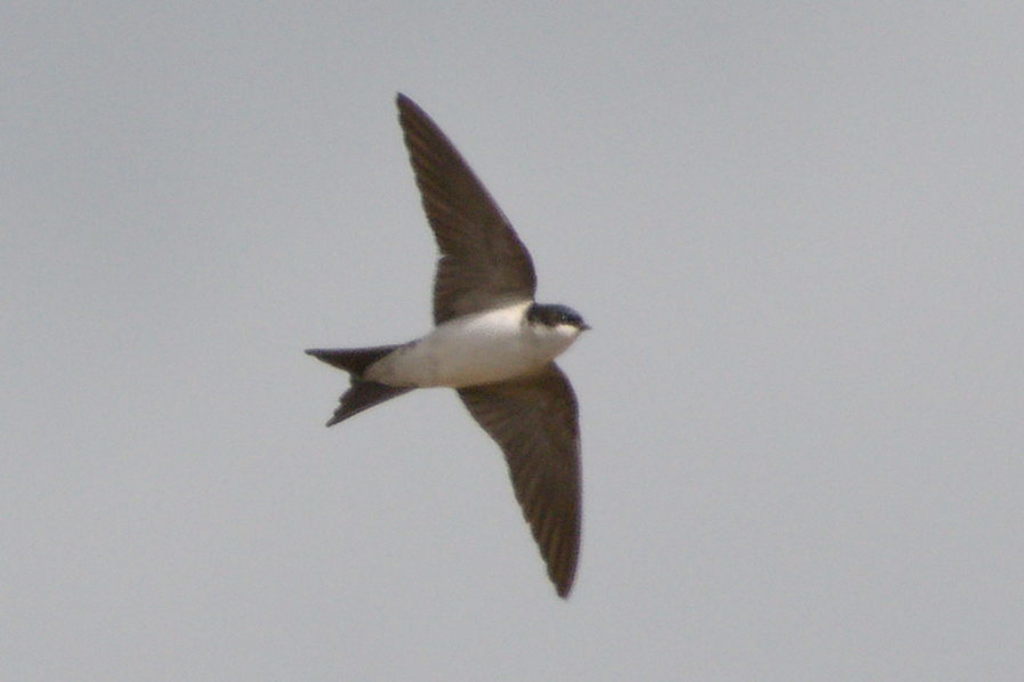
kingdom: Animalia
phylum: Chordata
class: Aves
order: Passeriformes
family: Hirundinidae
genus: Delichon
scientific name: Delichon urbicum
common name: Common house martin
